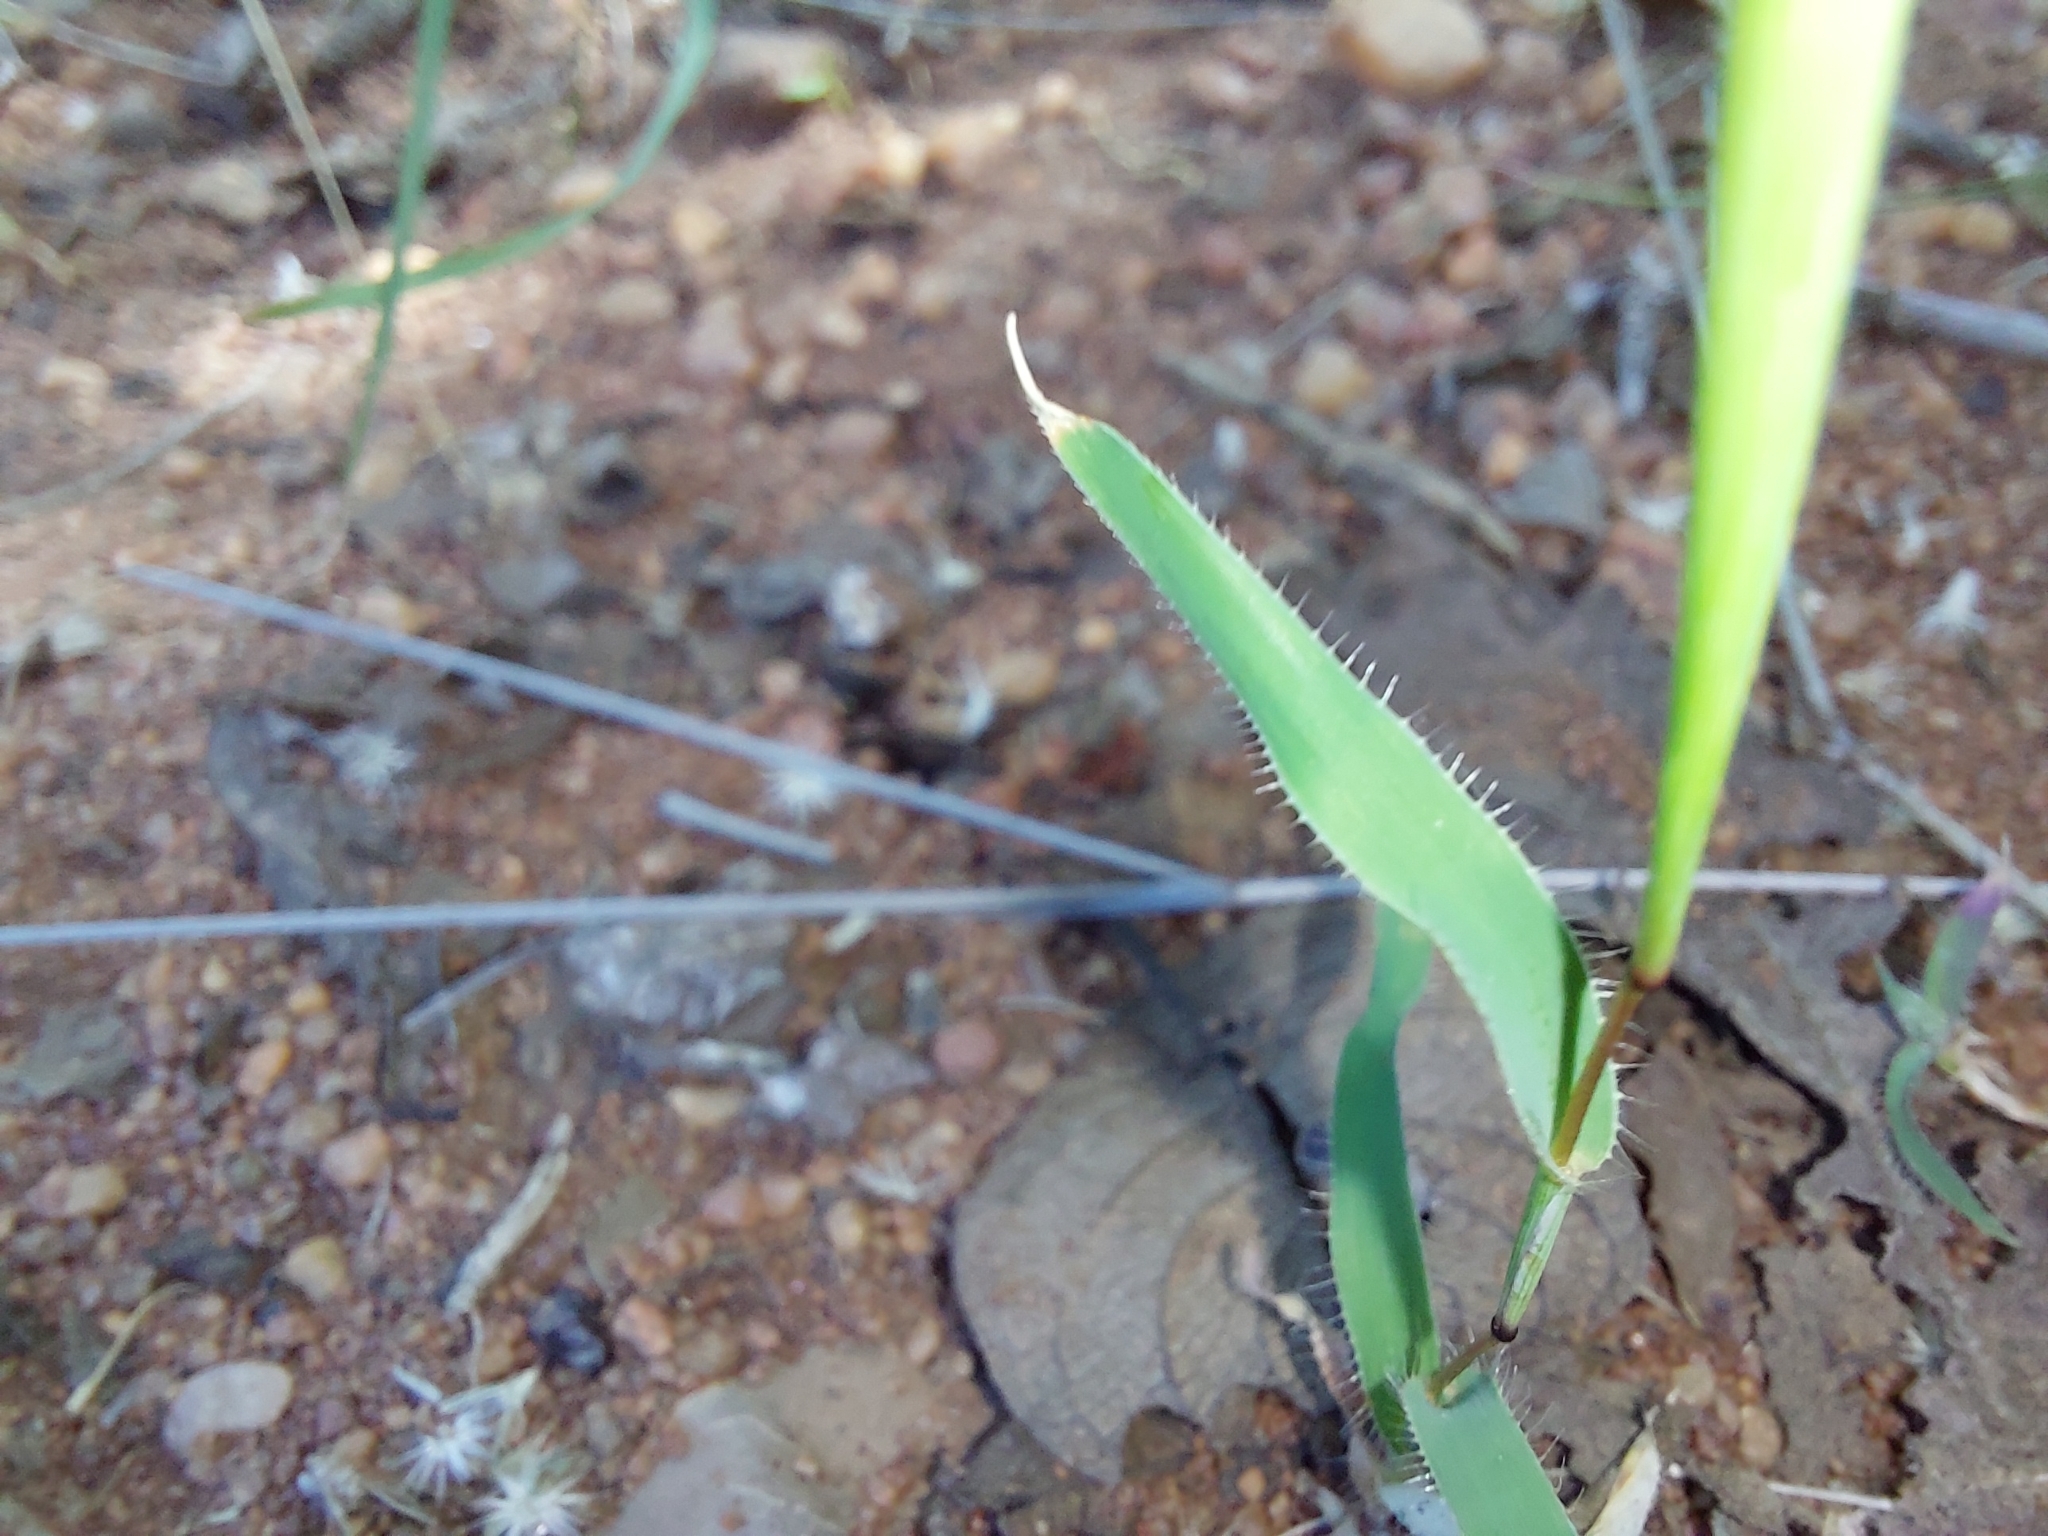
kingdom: Plantae
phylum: Tracheophyta
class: Liliopsida
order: Poales
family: Poaceae
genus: Tragus
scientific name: Tragus berteronianus
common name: African bur-grass
